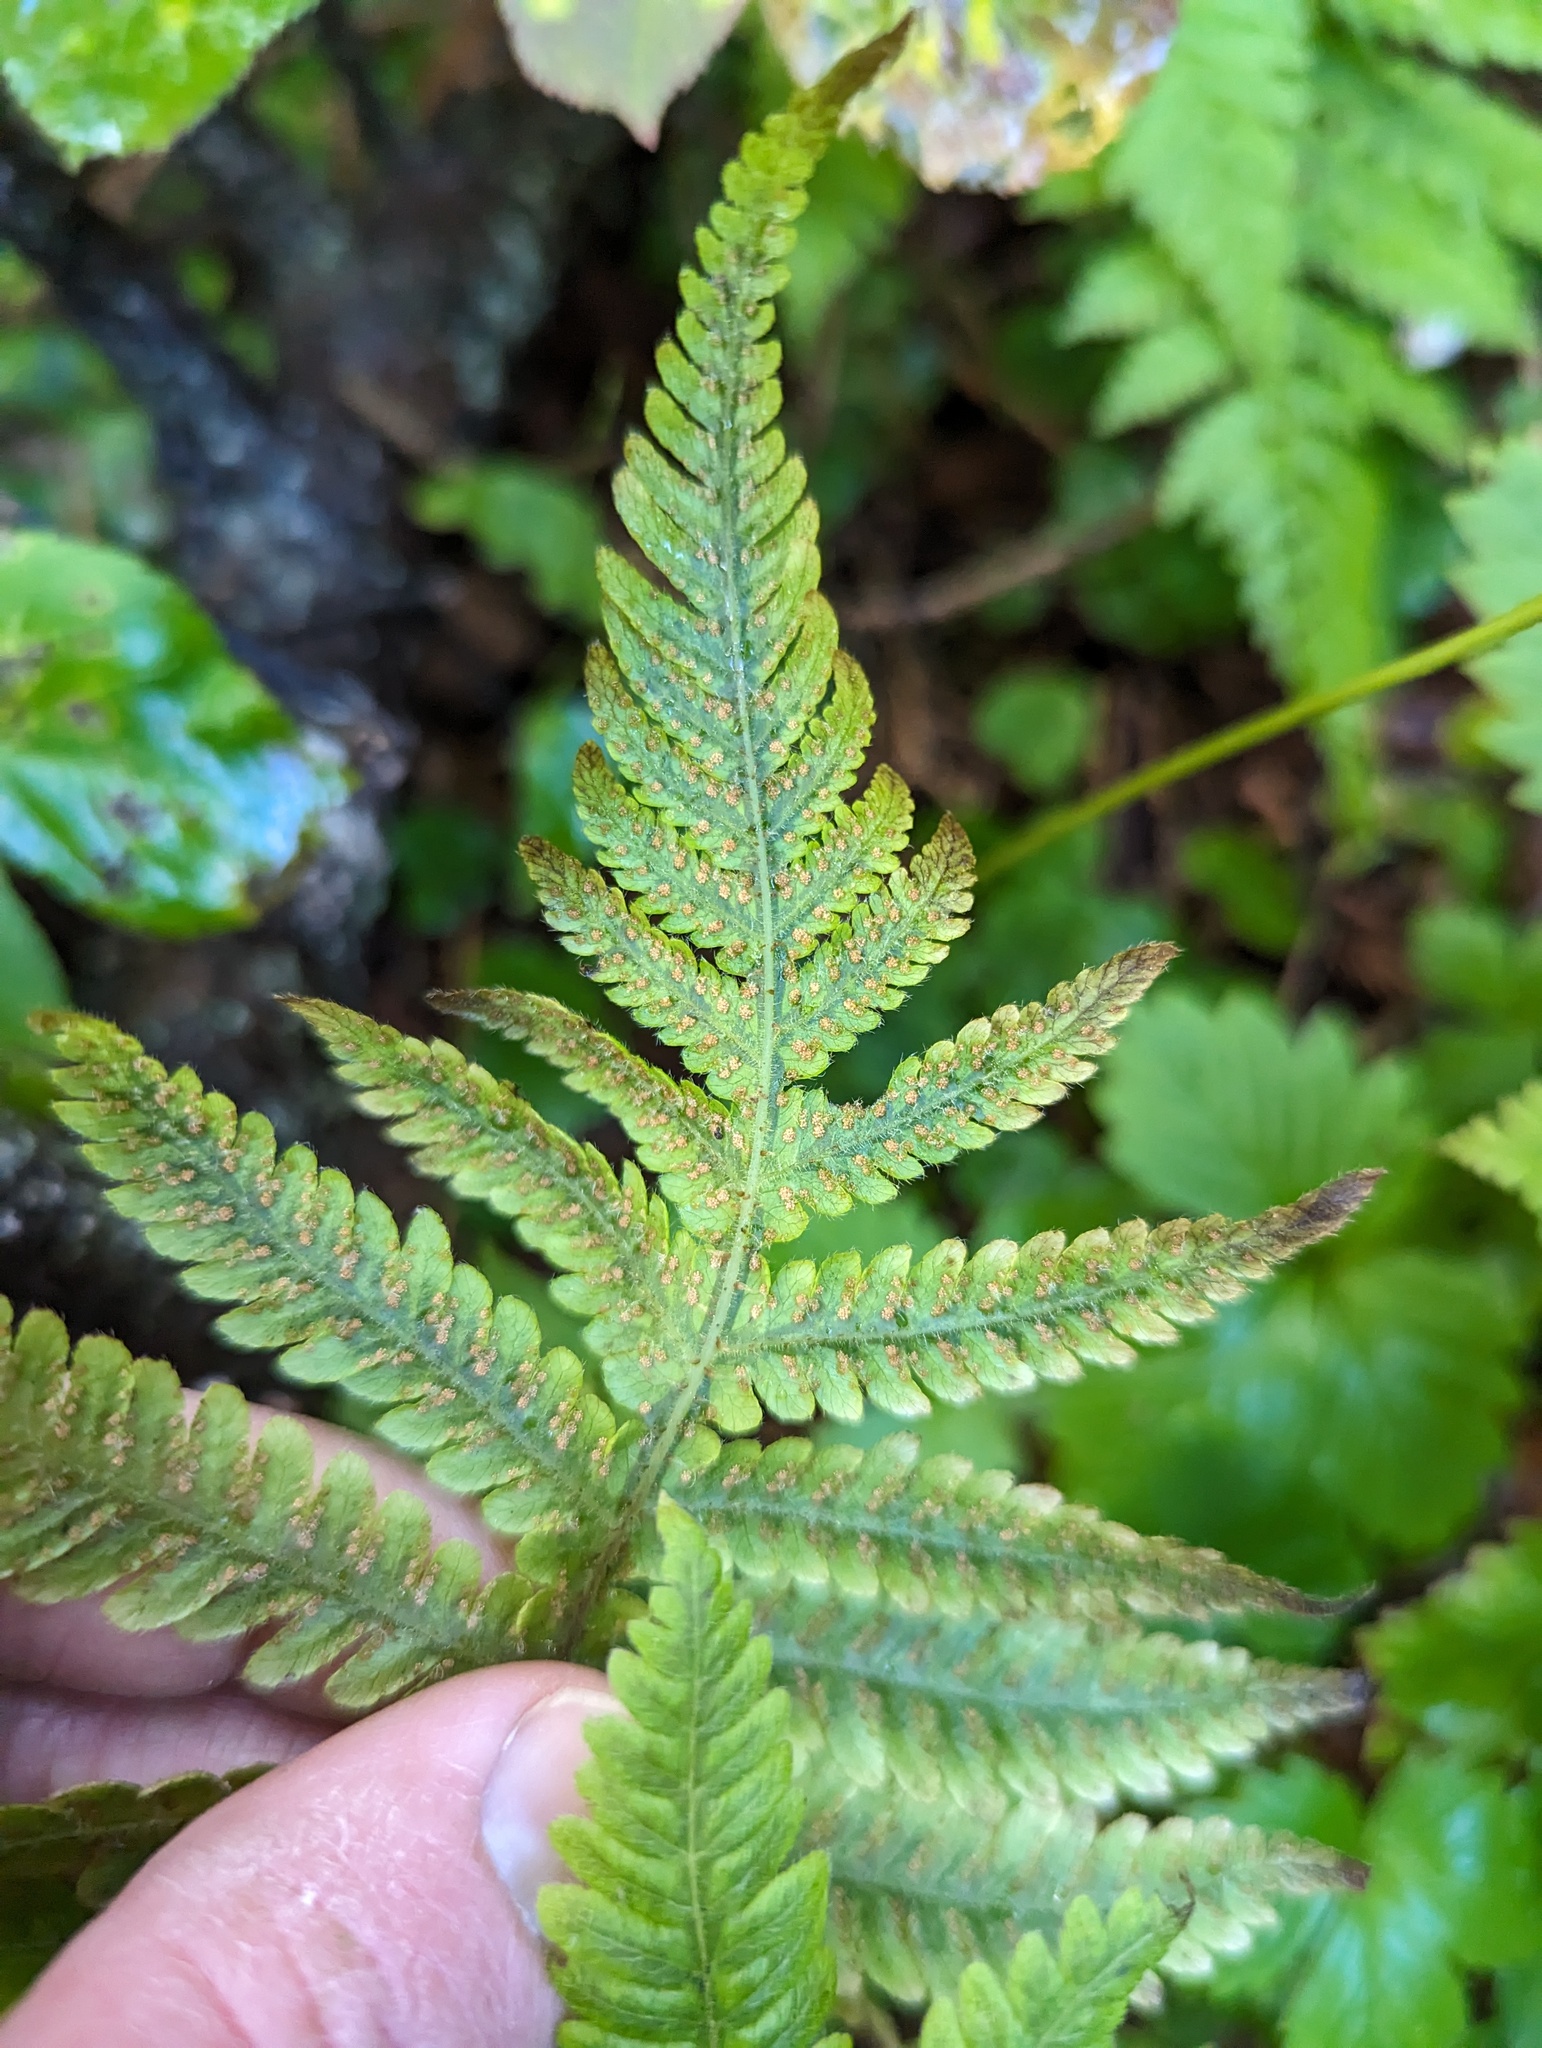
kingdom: Plantae
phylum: Tracheophyta
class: Polypodiopsida
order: Polypodiales
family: Thelypteridaceae
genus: Phegopteris
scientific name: Phegopteris connectilis
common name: Beech fern
